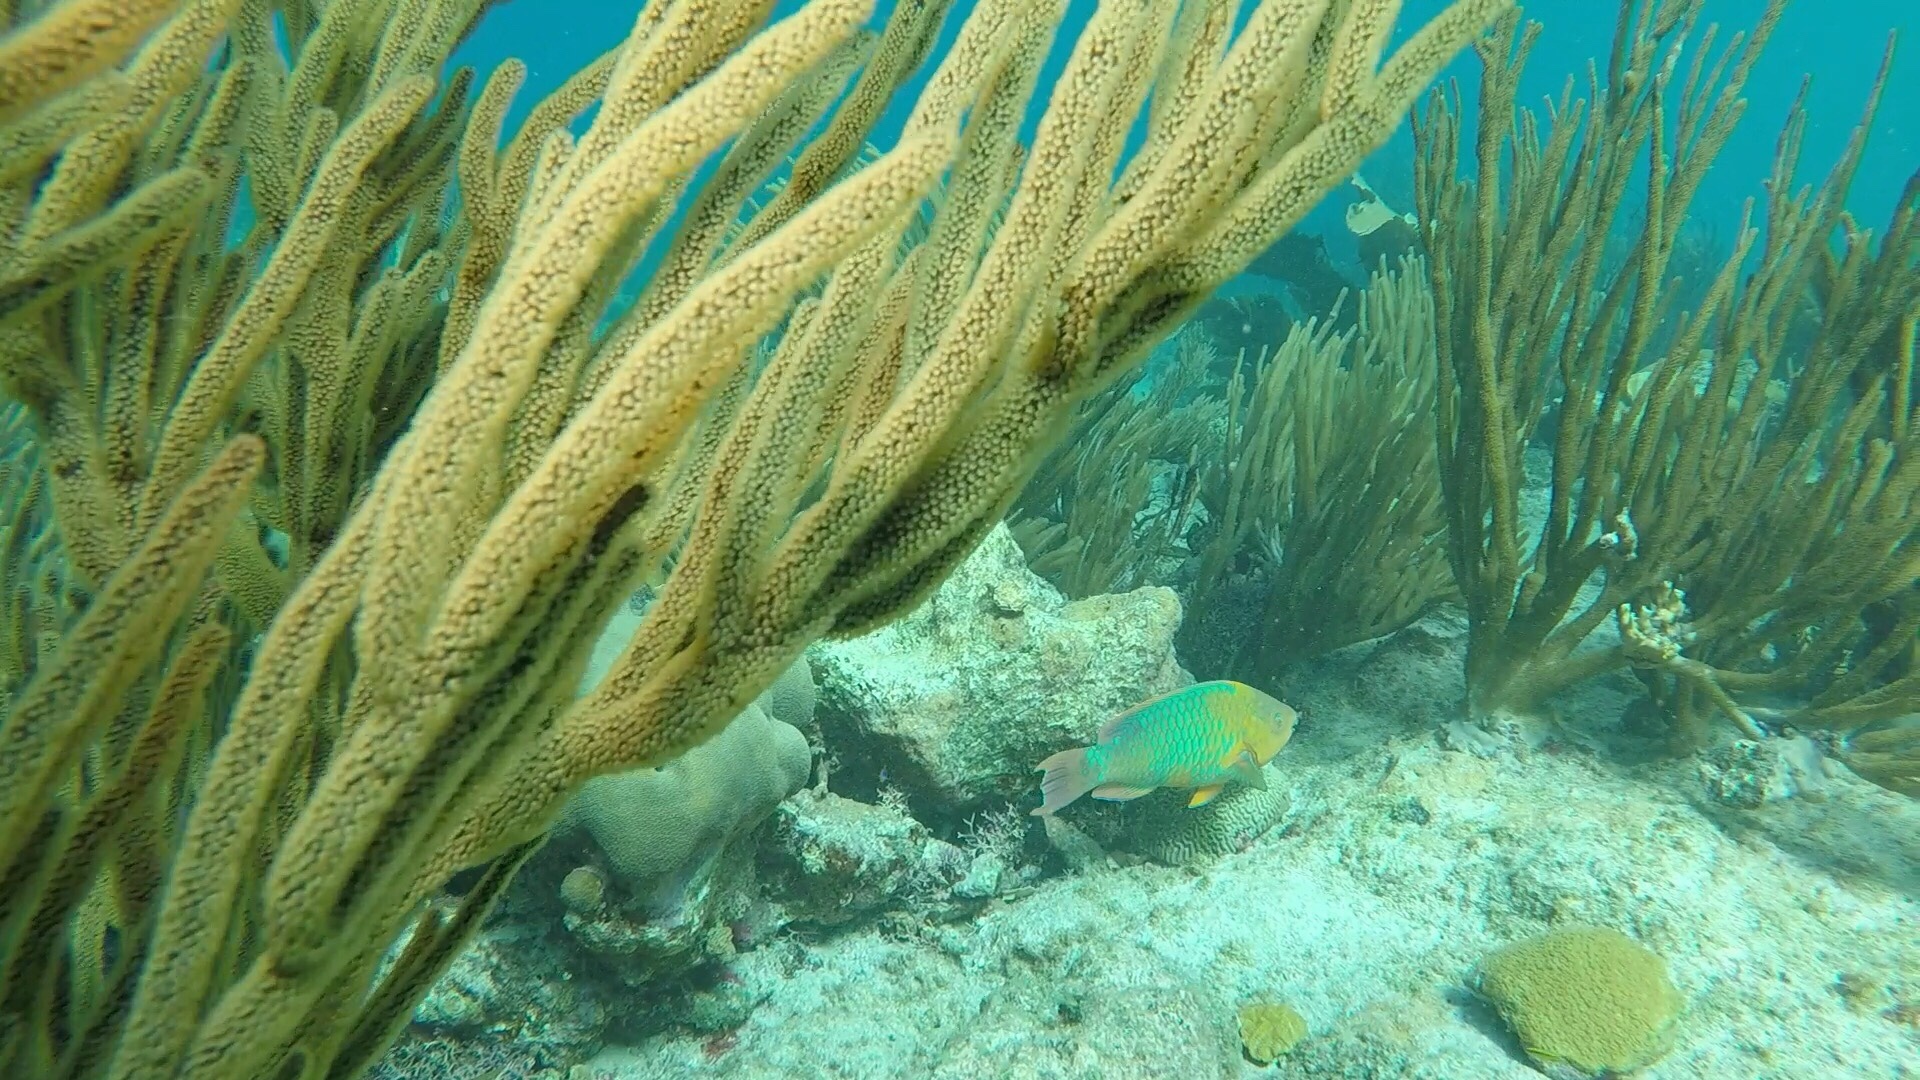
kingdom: Animalia
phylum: Chordata
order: Perciformes
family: Scaridae
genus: Scarus
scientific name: Scarus guacamaia
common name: Rainbow parrotfish
